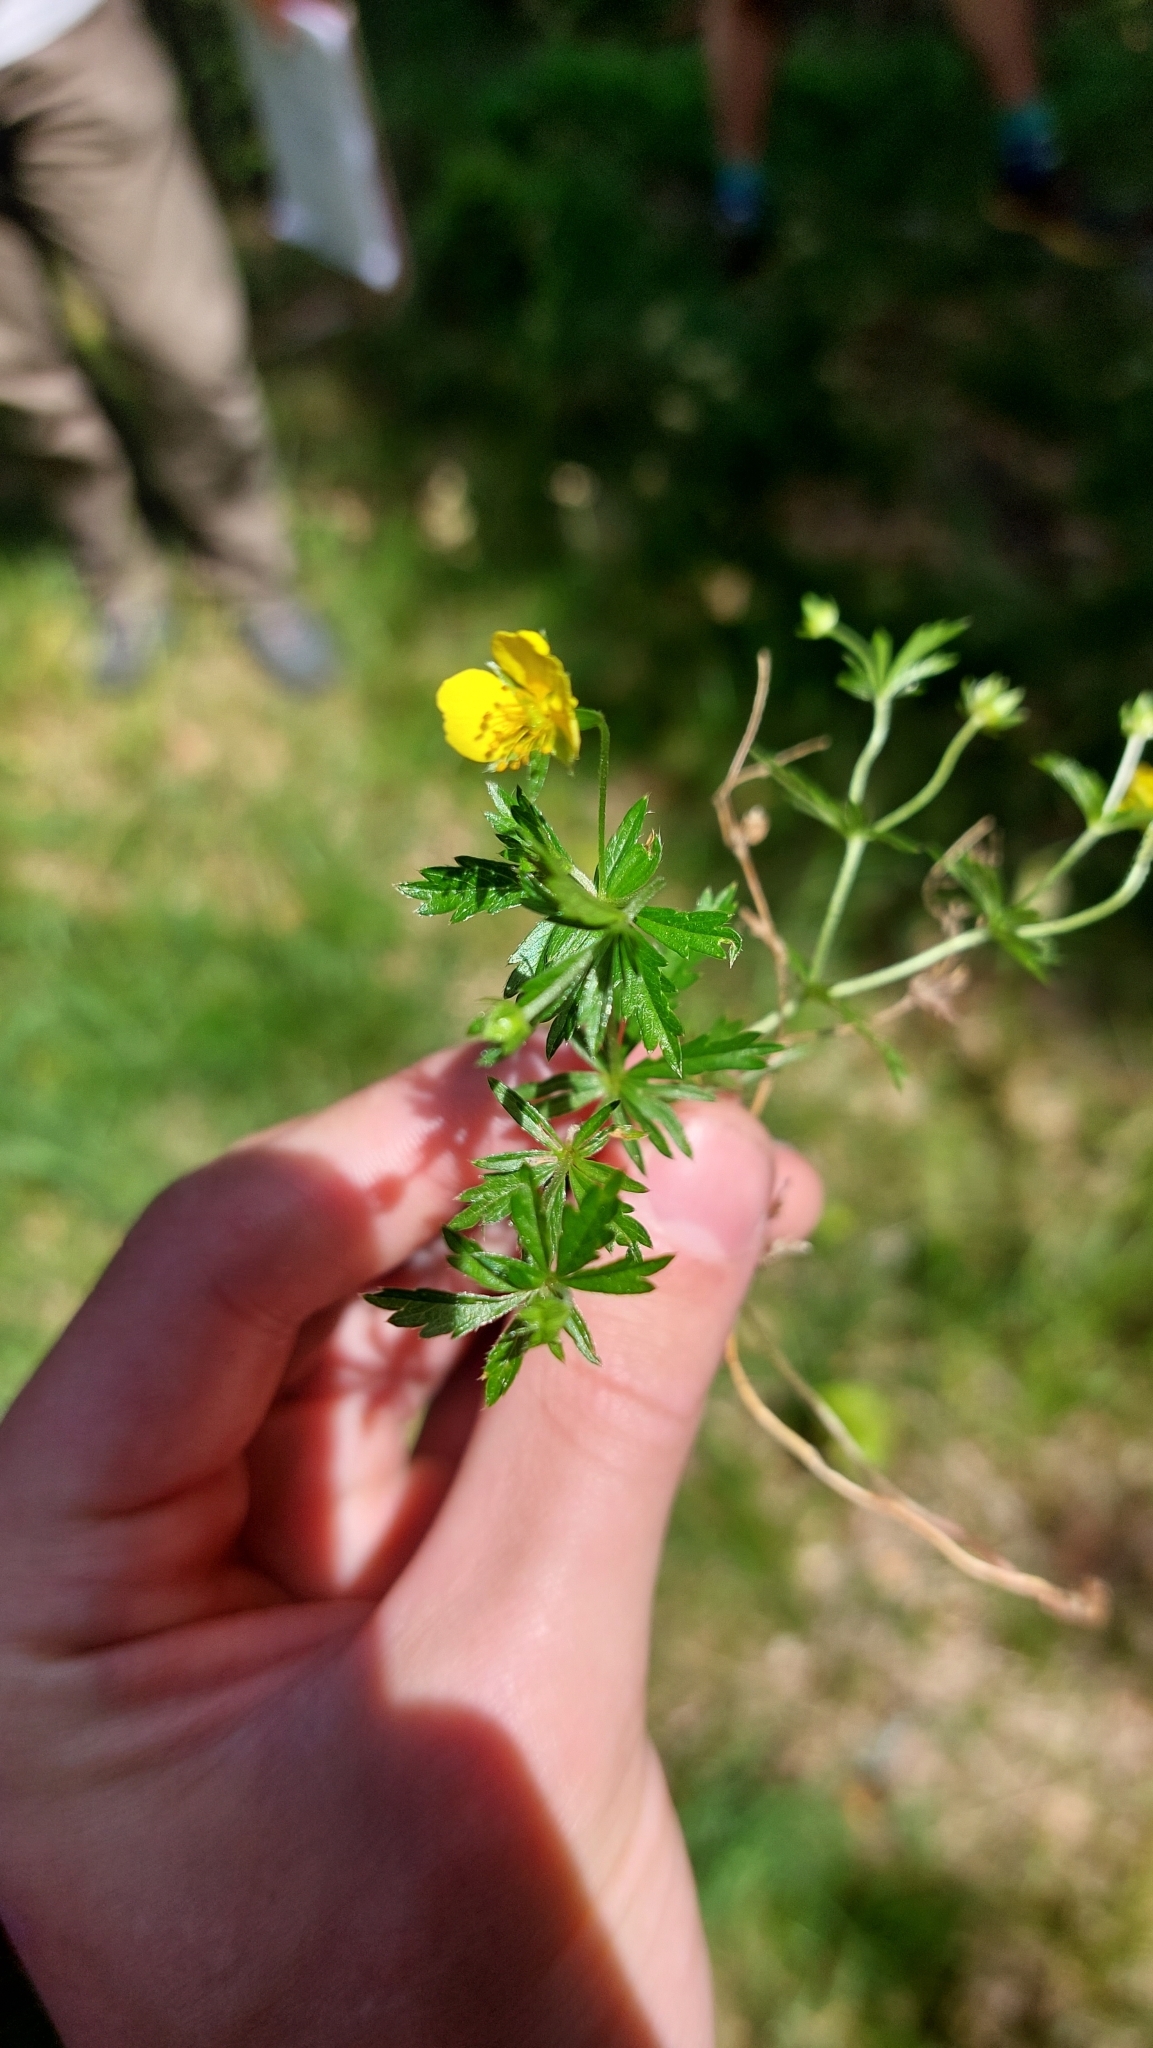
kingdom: Plantae
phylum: Tracheophyta
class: Magnoliopsida
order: Rosales
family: Rosaceae
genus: Potentilla
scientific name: Potentilla erecta
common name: Tormentil
